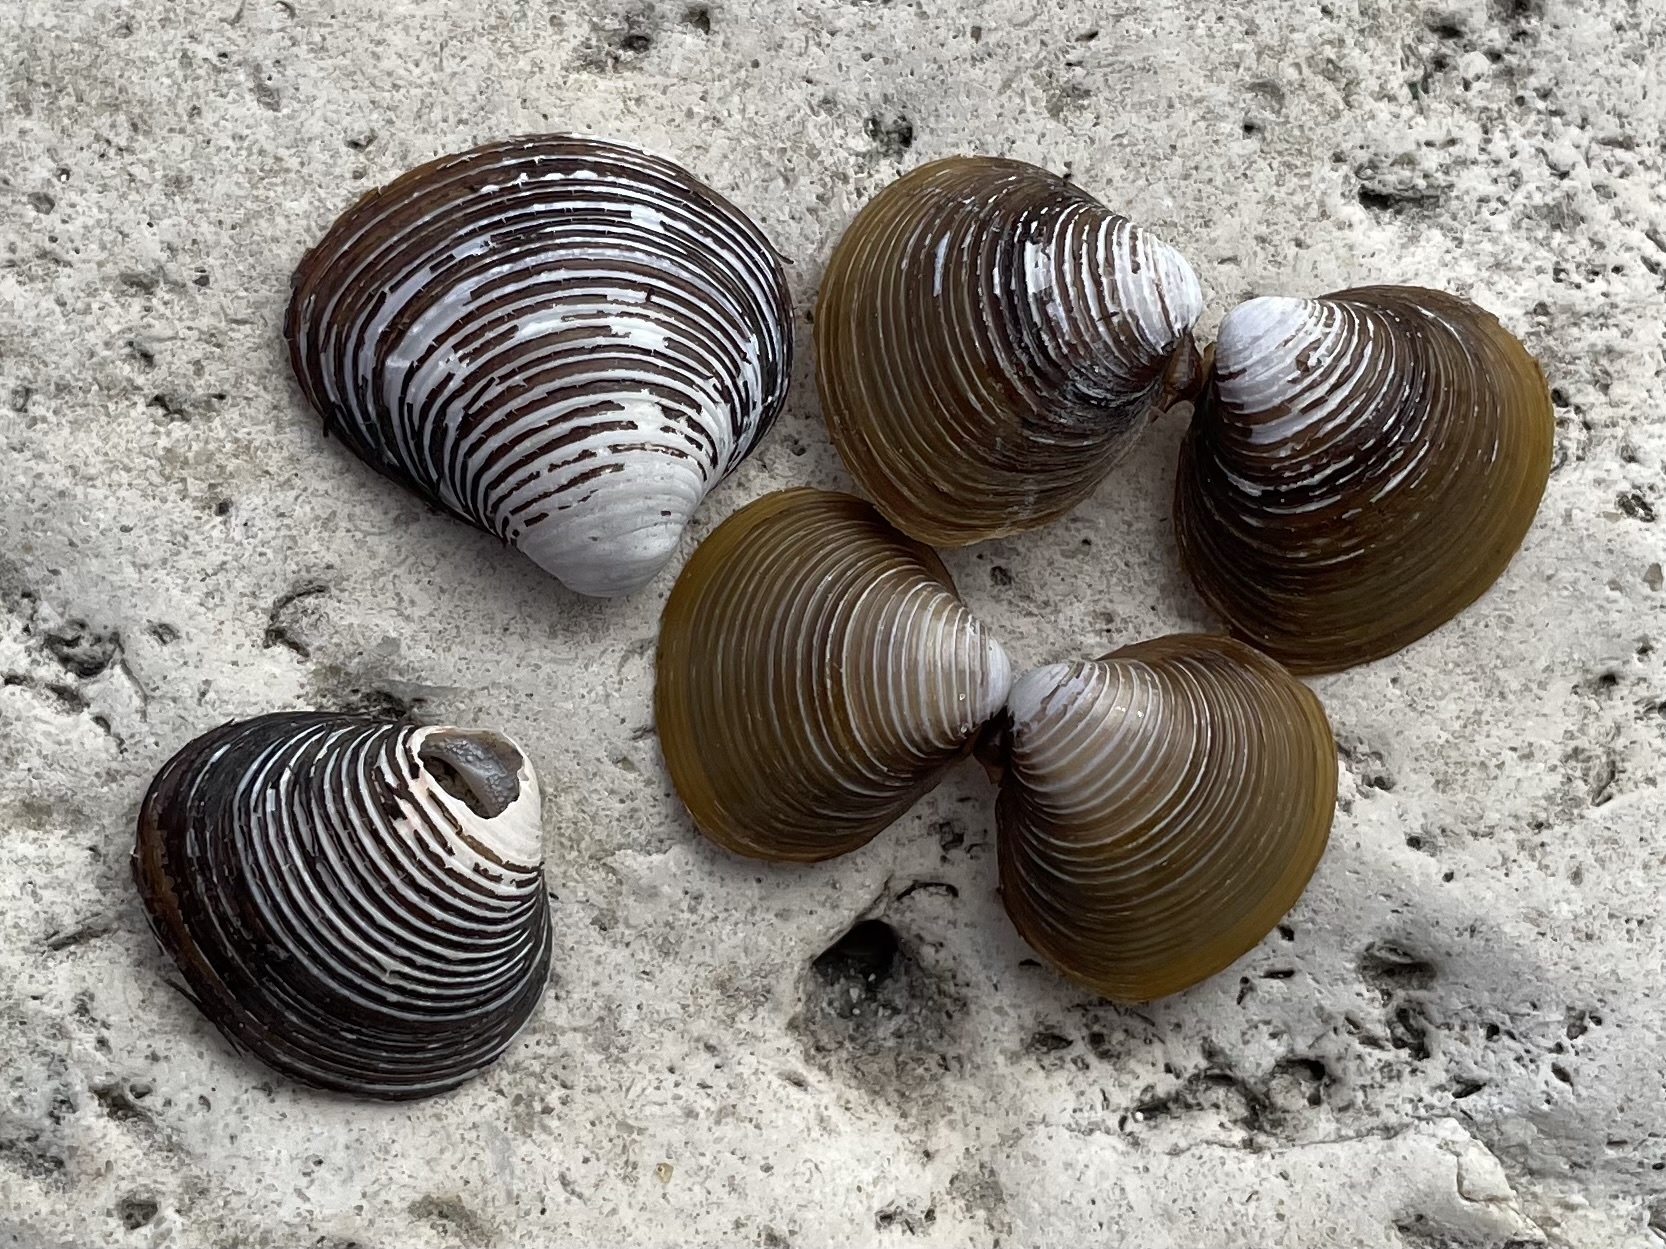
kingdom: Animalia
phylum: Mollusca
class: Bivalvia
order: Venerida
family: Cyrenidae
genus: Corbicula
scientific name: Corbicula fluminea
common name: Asian clam
